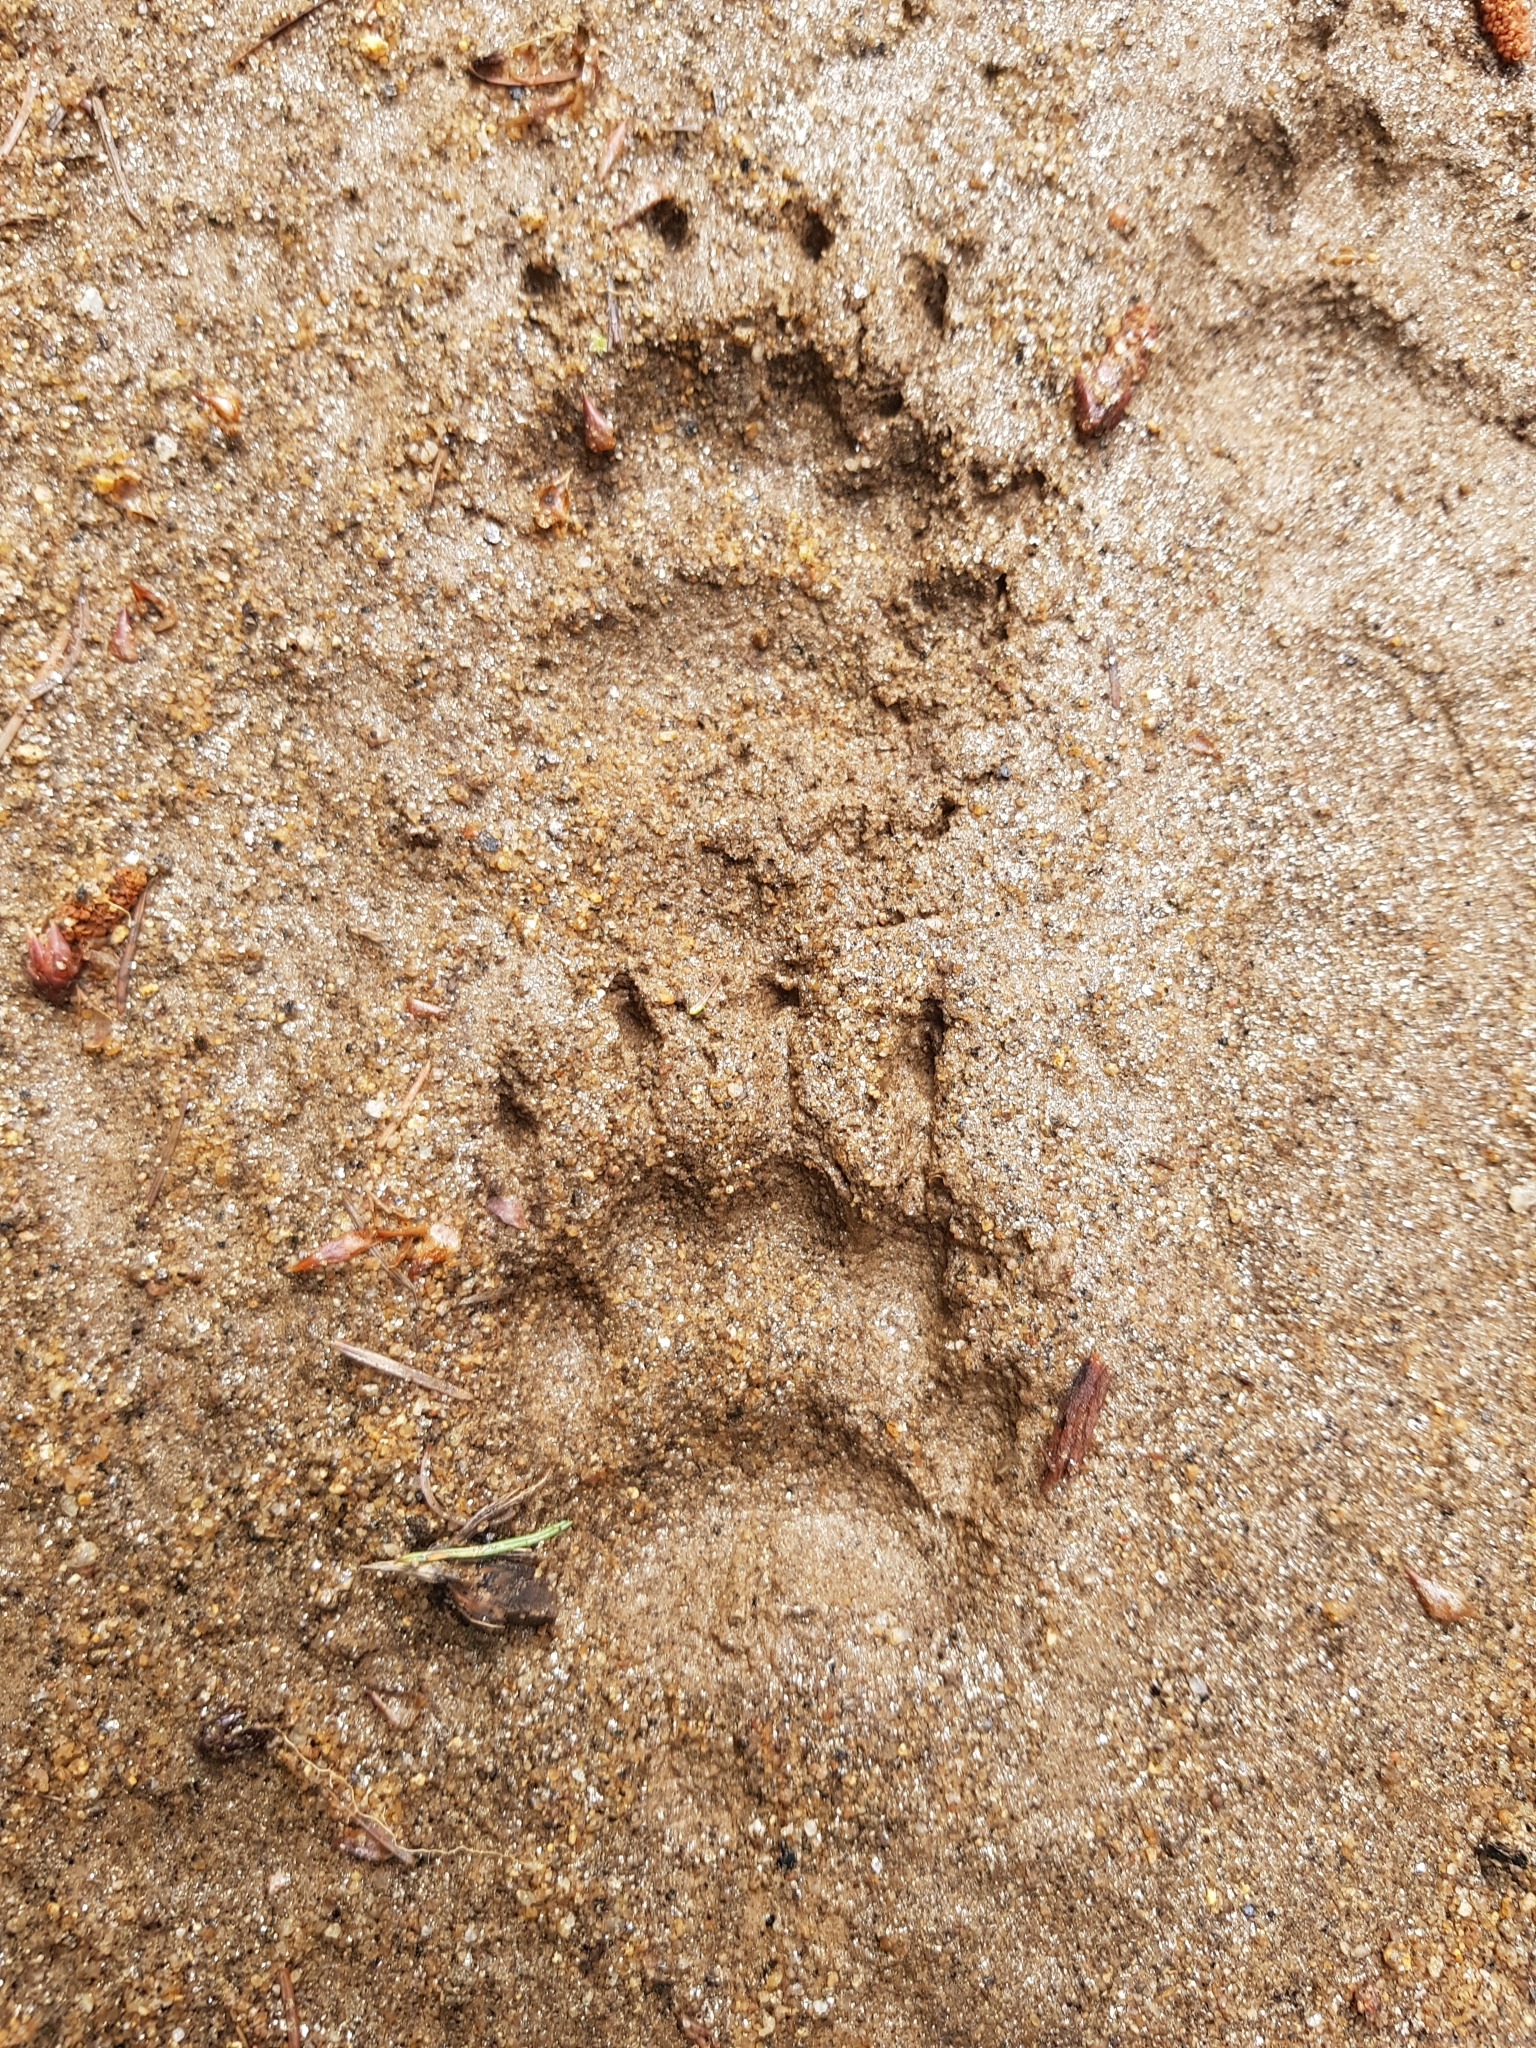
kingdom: Animalia
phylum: Chordata
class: Mammalia
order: Carnivora
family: Mustelidae
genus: Meles
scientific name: Meles meles
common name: Eurasian badger
